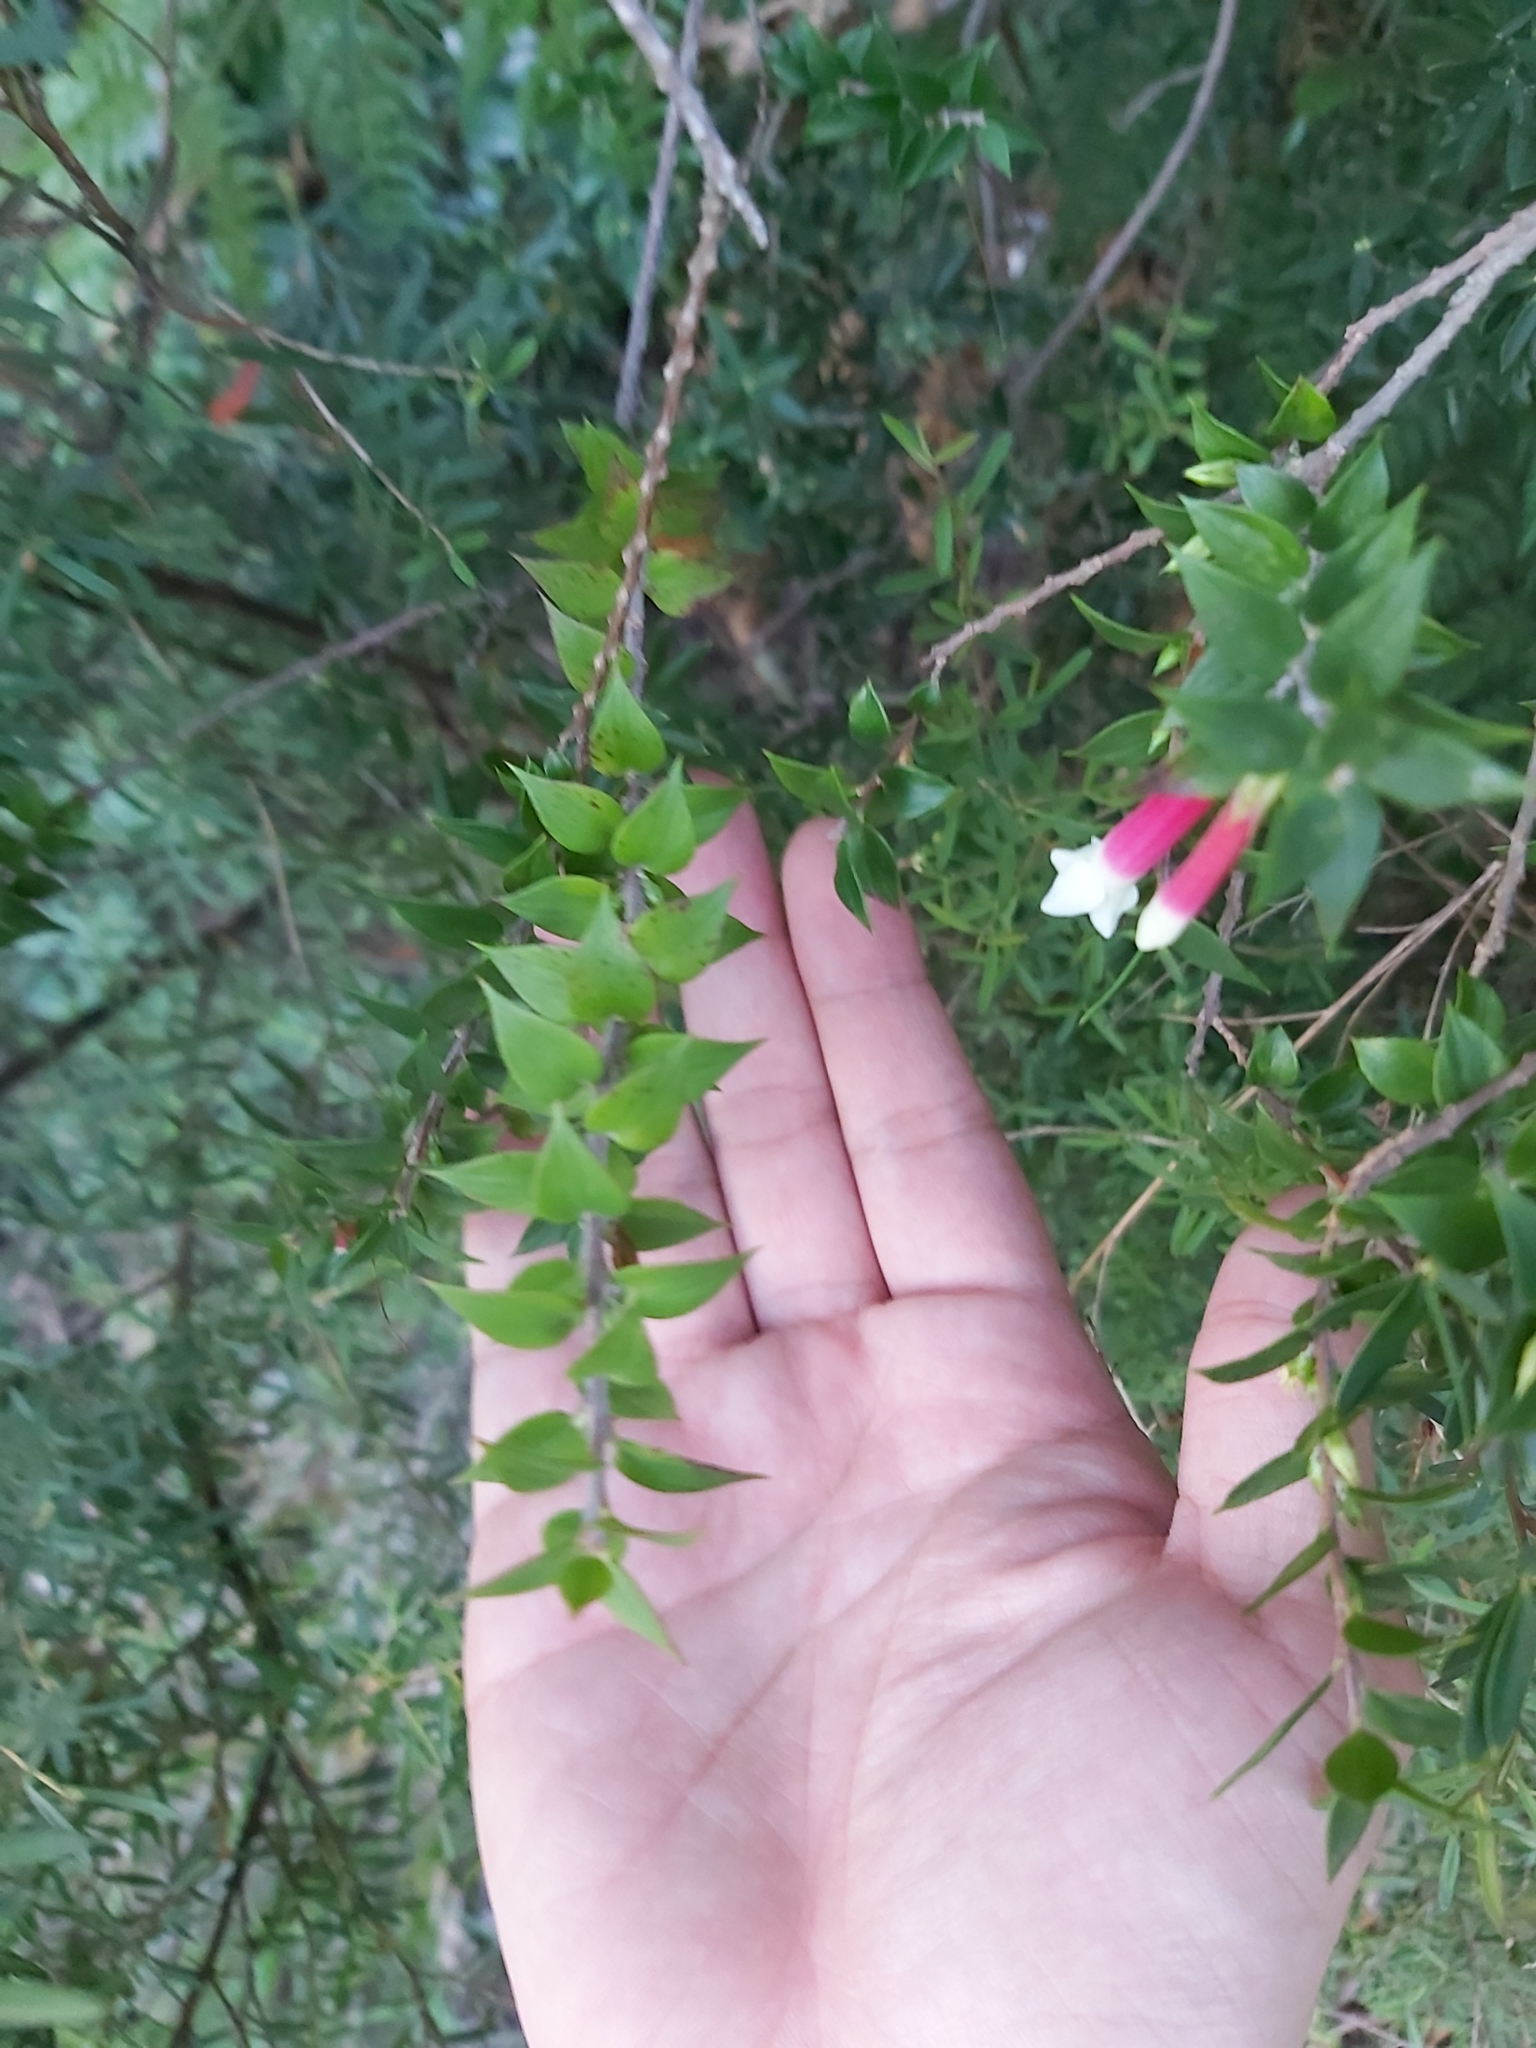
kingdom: Plantae
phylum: Tracheophyta
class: Magnoliopsida
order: Ericales
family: Ericaceae
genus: Epacris
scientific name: Epacris longiflora
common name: Fuchsia-heath
